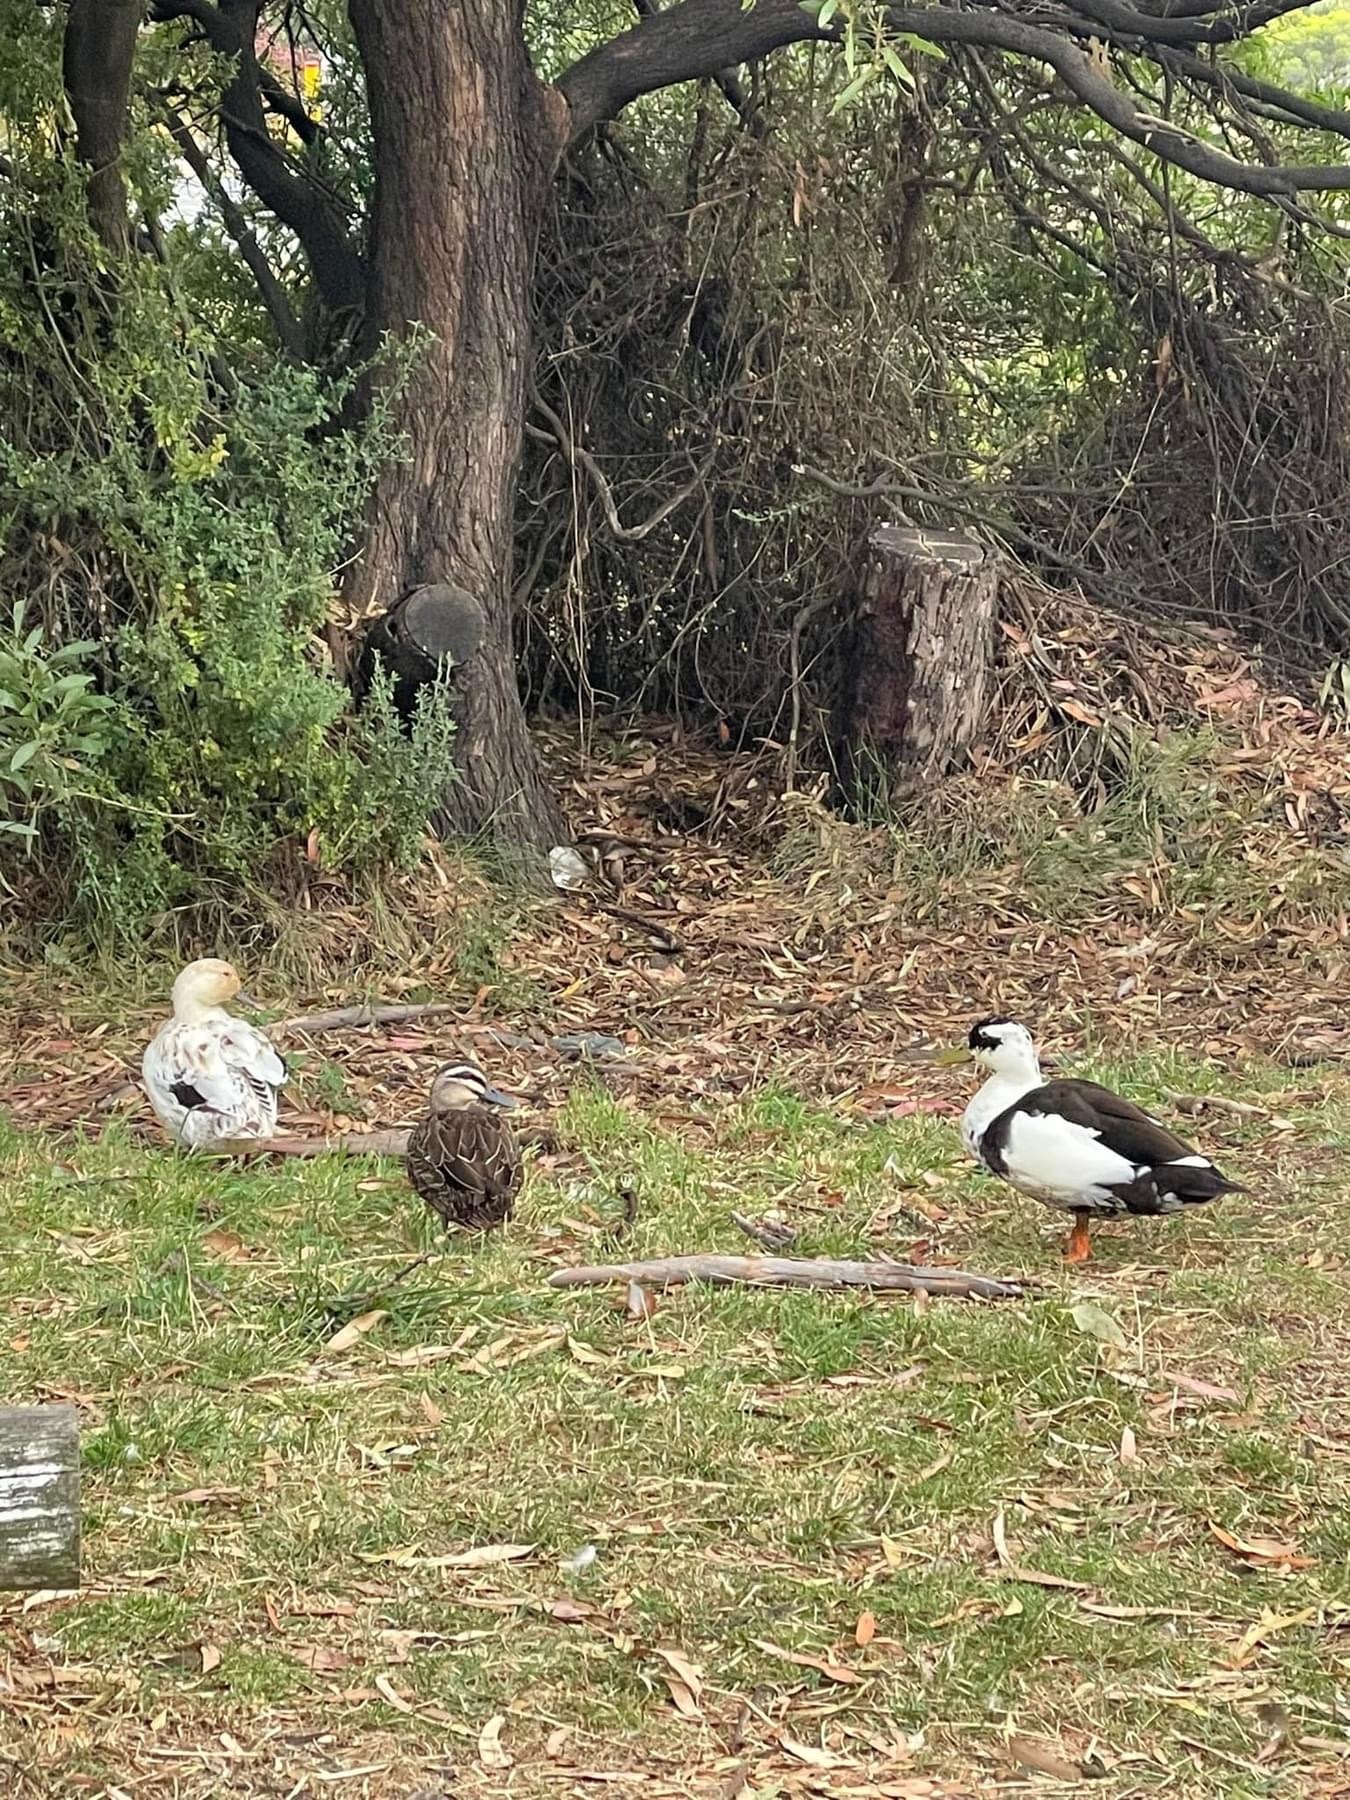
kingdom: Animalia
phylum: Chordata
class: Aves
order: Anseriformes
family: Anatidae
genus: Anas
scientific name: Anas platyrhynchos
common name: Mallard
